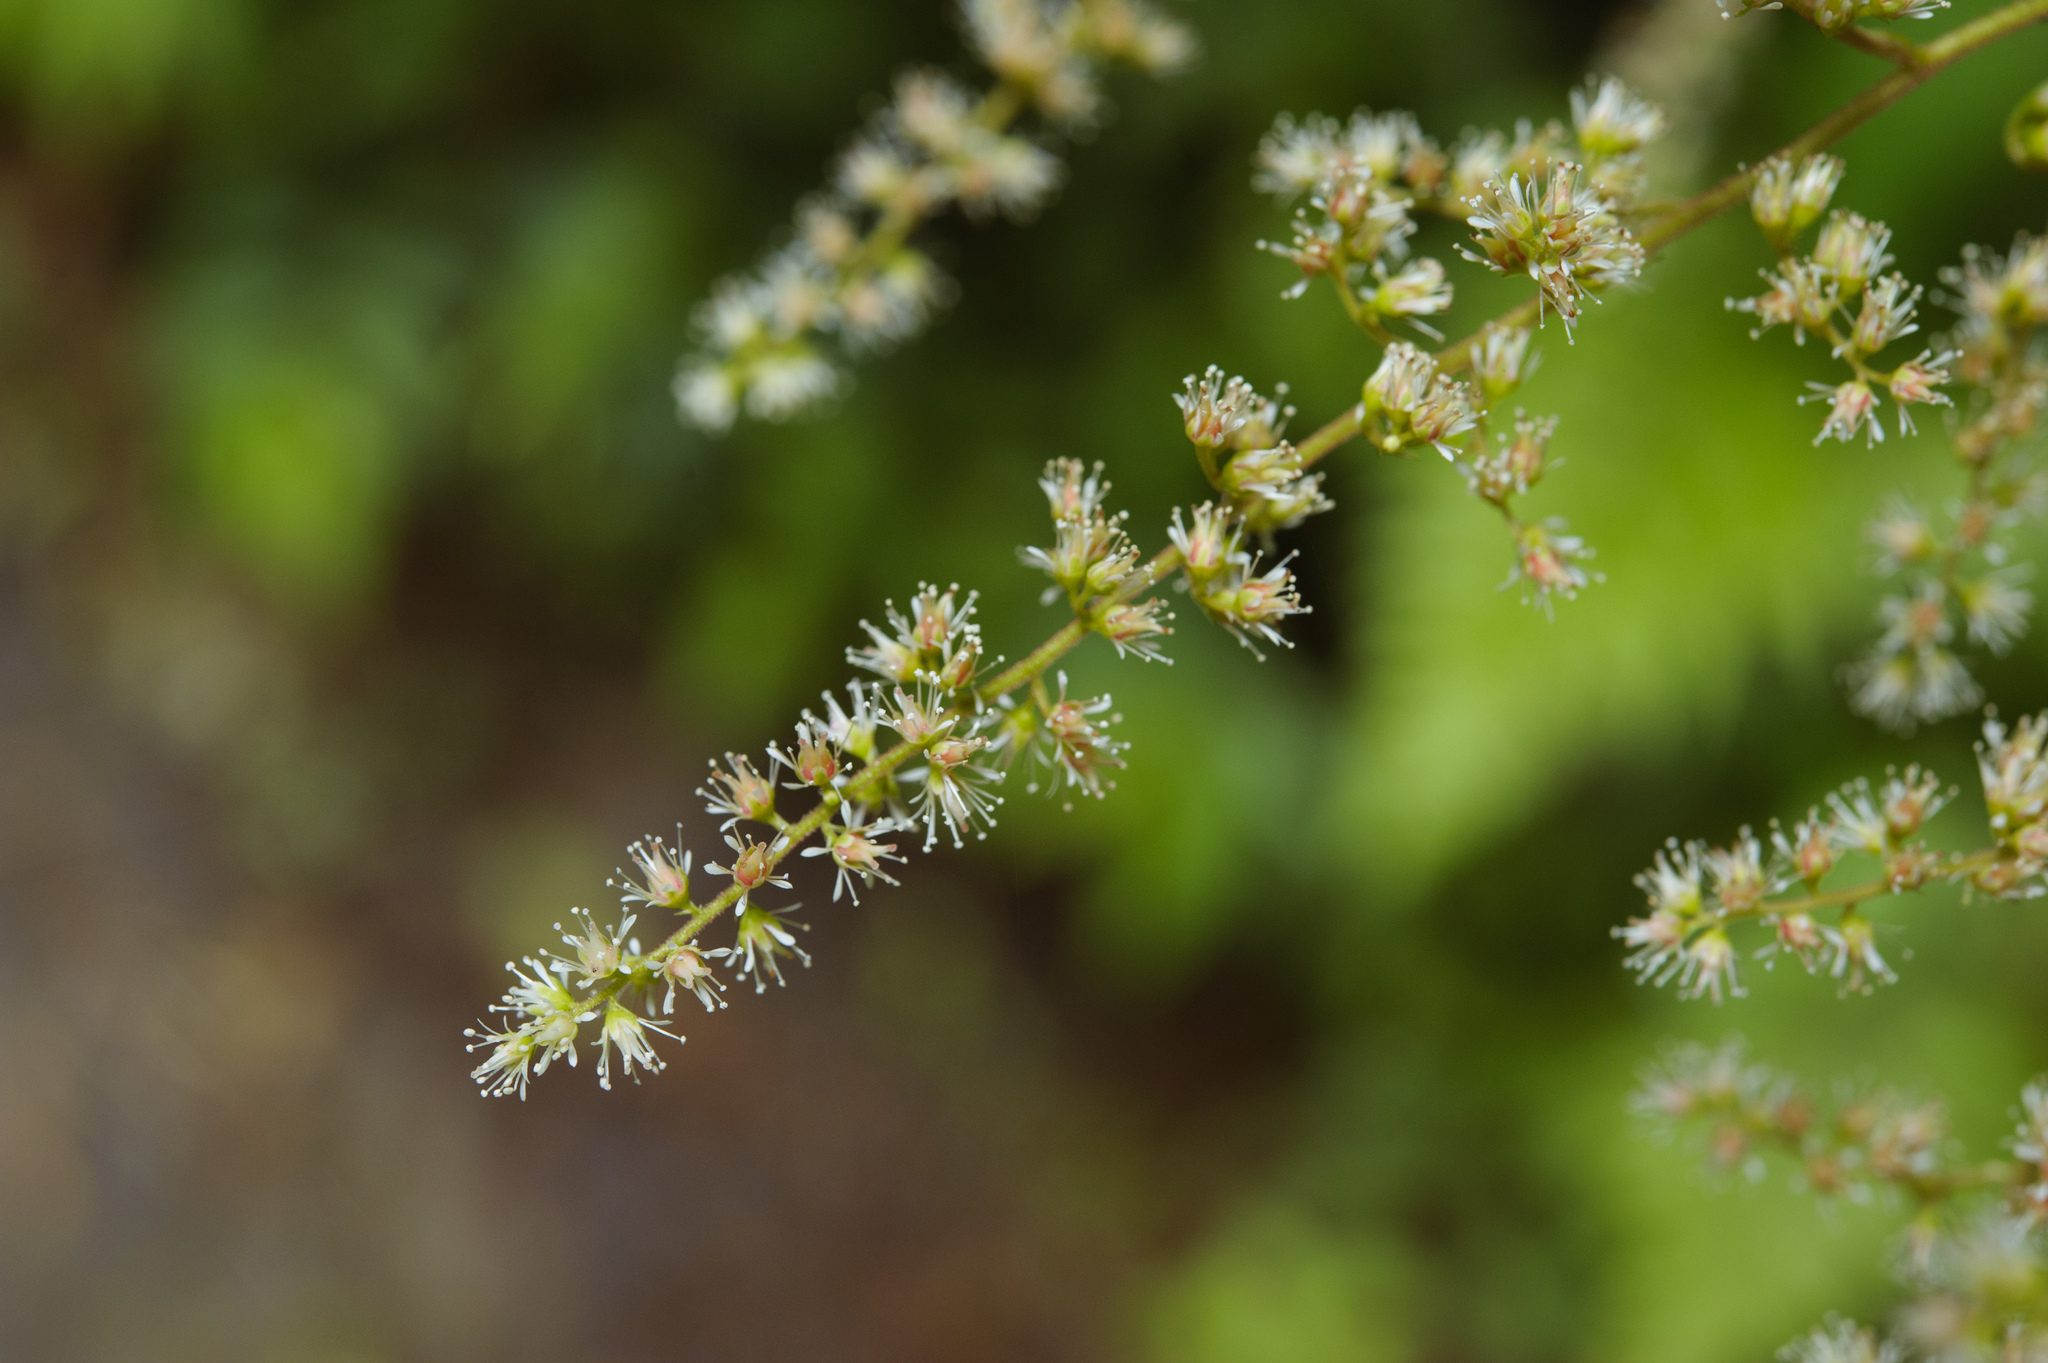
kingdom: Plantae
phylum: Tracheophyta
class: Magnoliopsida
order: Saxifragales
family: Saxifragaceae
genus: Astilbe
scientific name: Astilbe longicarpa
